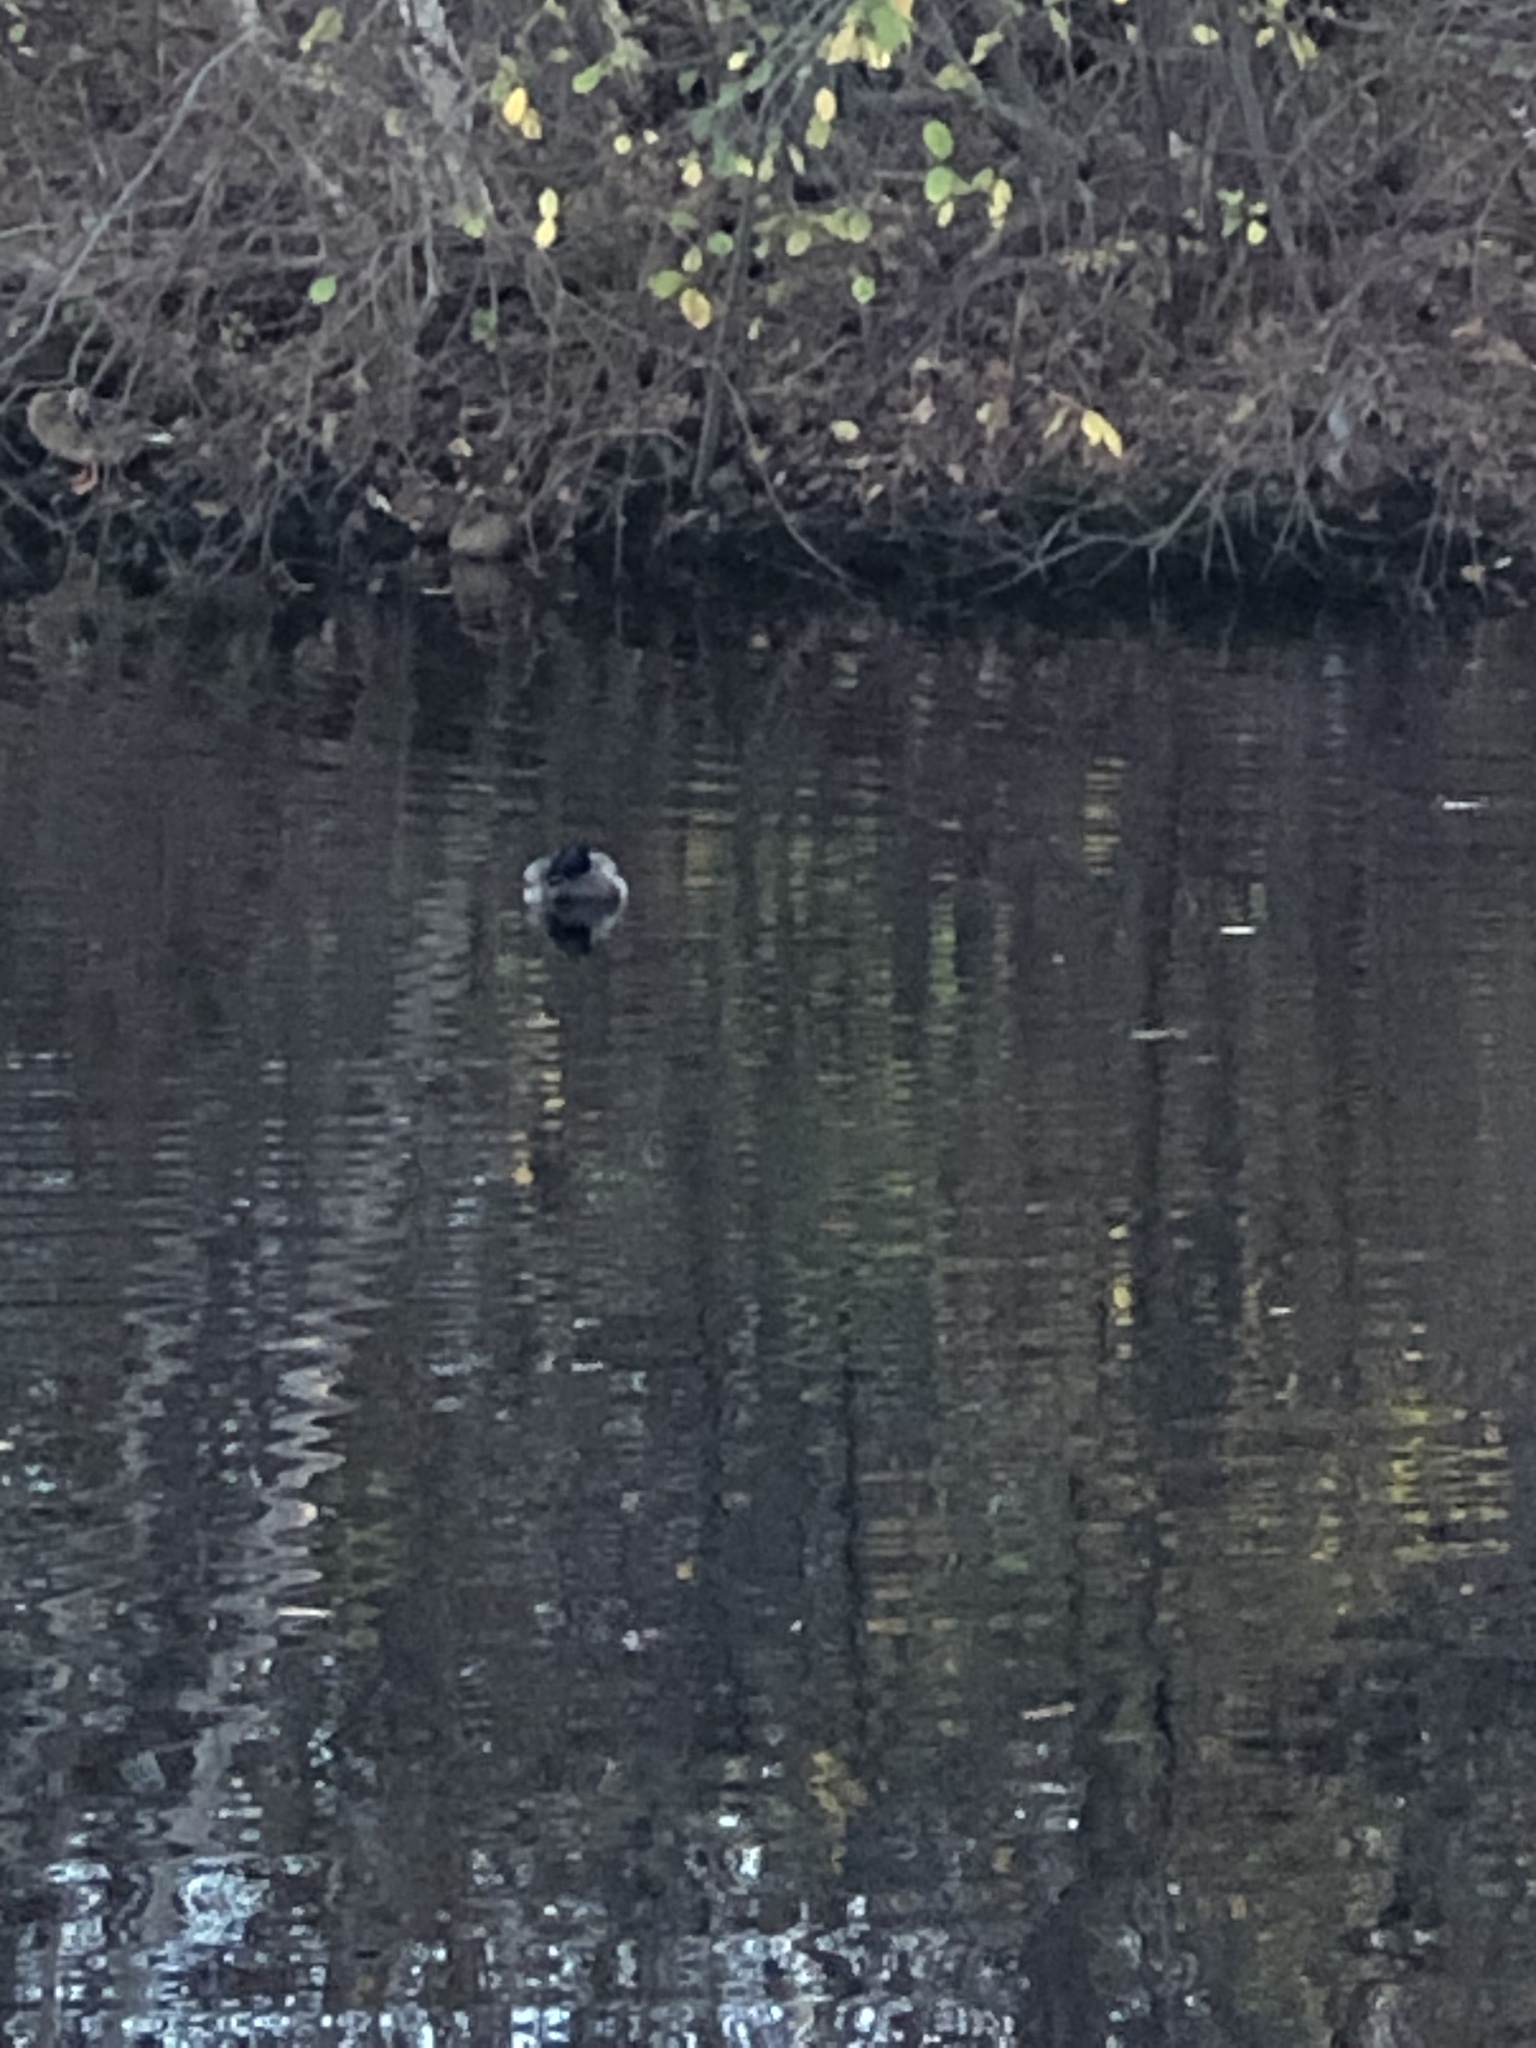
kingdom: Animalia
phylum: Chordata
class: Aves
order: Anseriformes
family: Anatidae
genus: Anas
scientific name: Anas platyrhynchos
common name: Mallard
